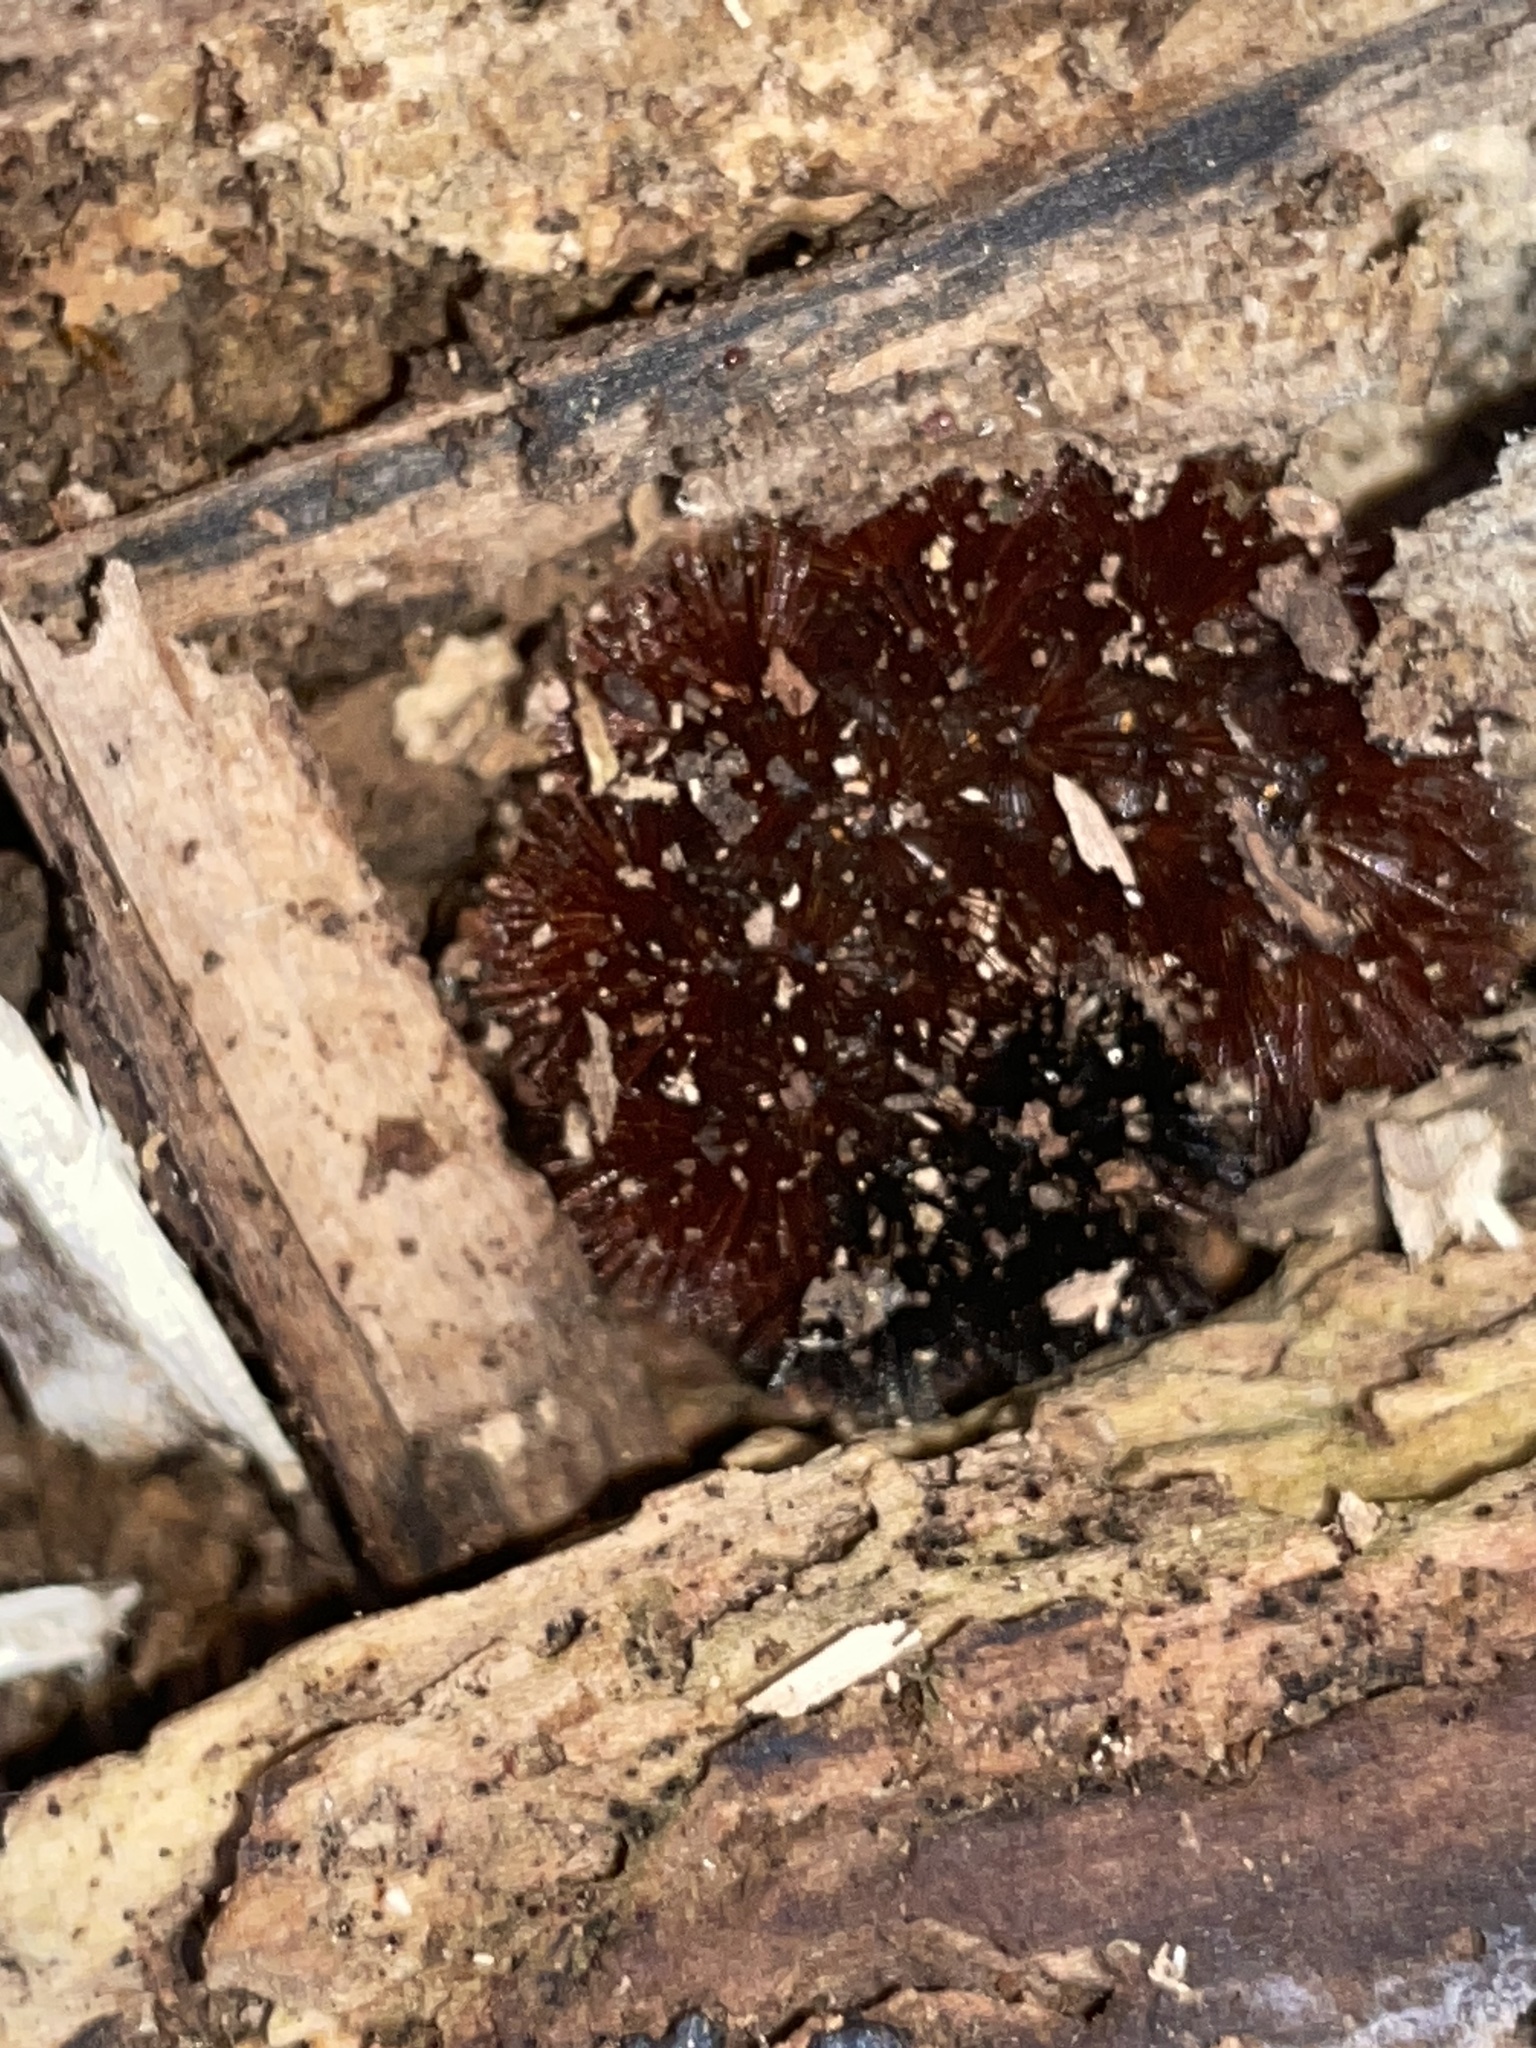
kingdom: Animalia
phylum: Arthropoda
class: Insecta
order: Lepidoptera
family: Erebidae
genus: Pyrrharctia
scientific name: Pyrrharctia isabella
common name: Isabella tiger moth
